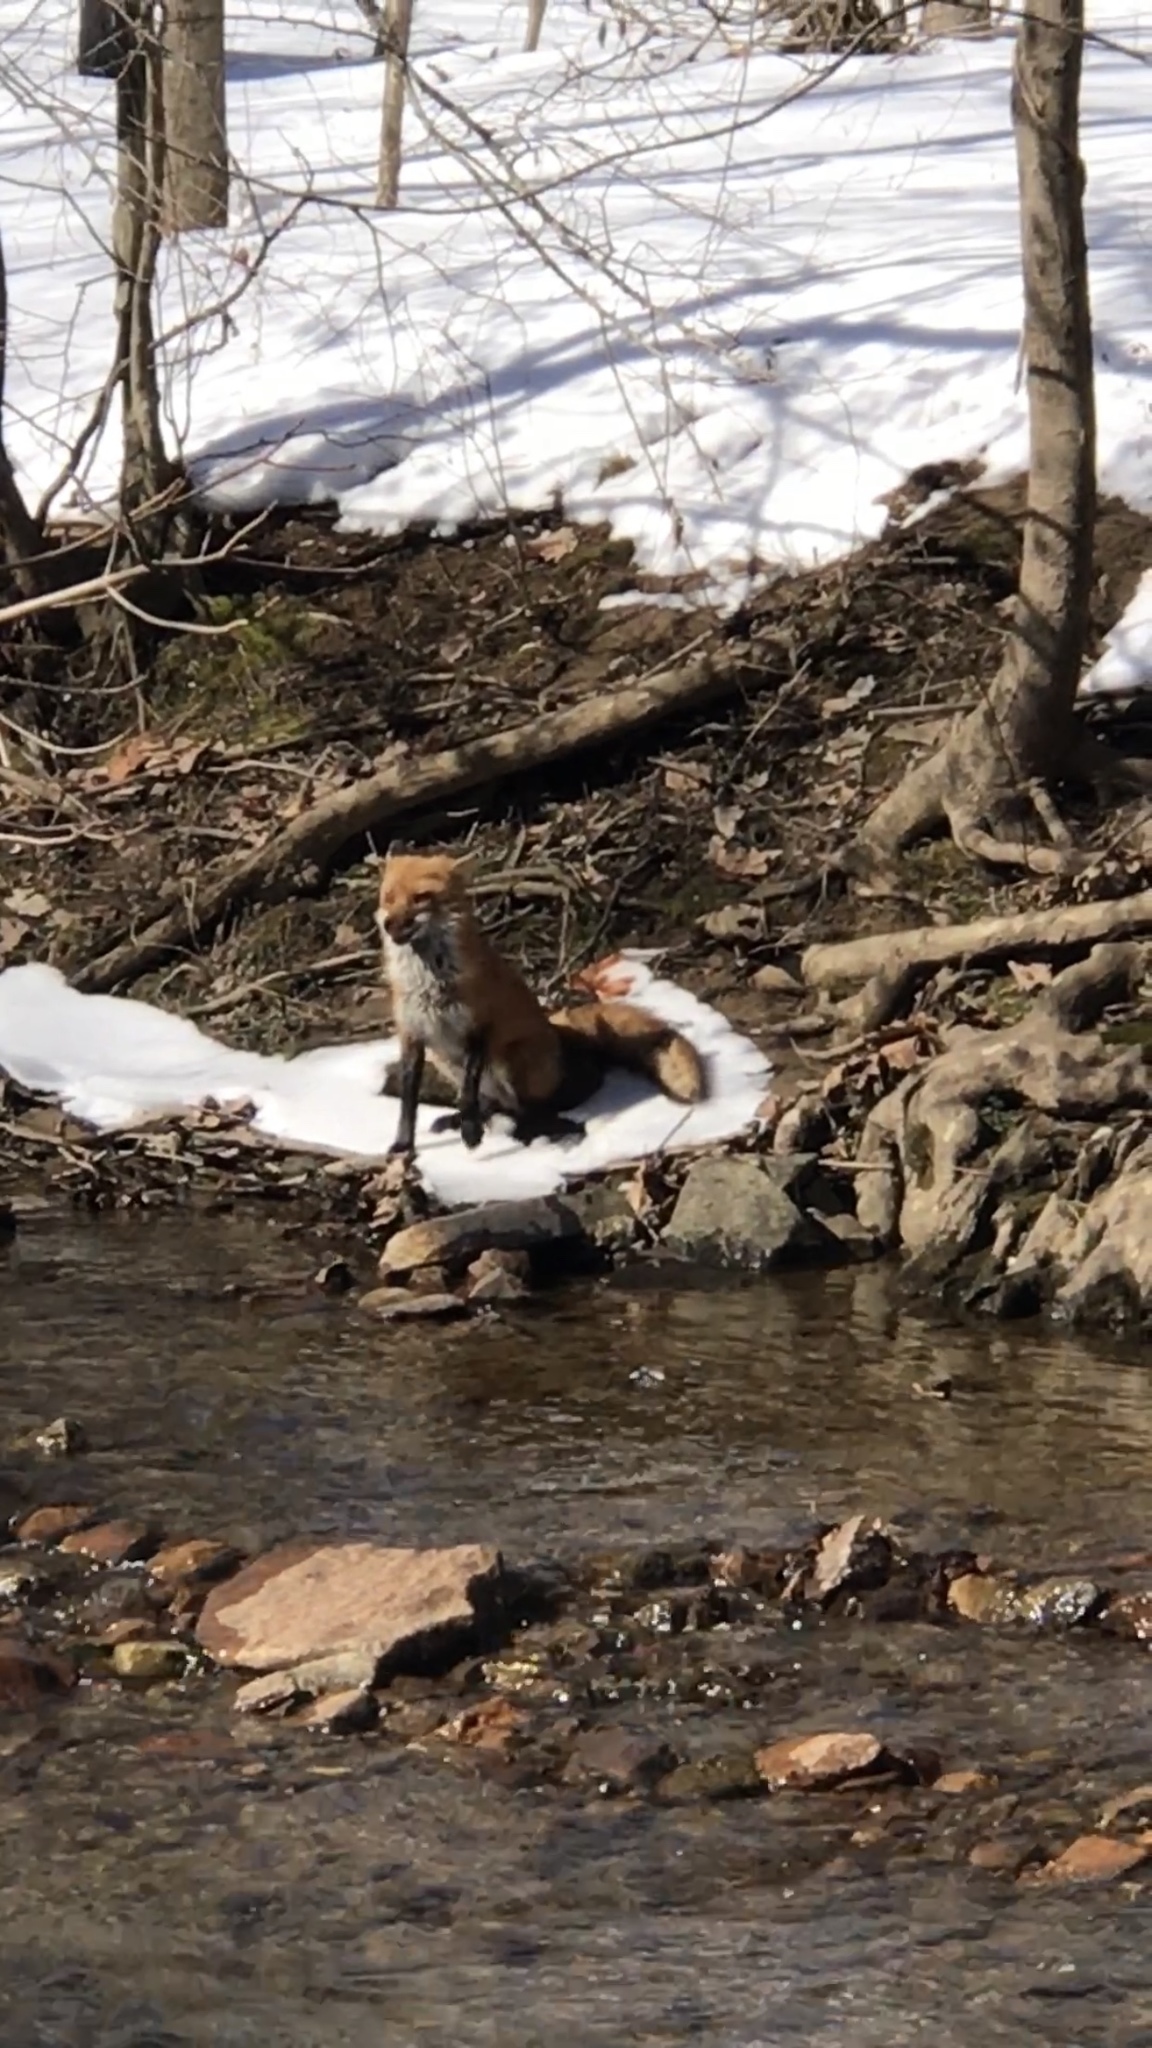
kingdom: Animalia
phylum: Chordata
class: Mammalia
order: Carnivora
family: Canidae
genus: Vulpes
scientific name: Vulpes vulpes
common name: Red fox
